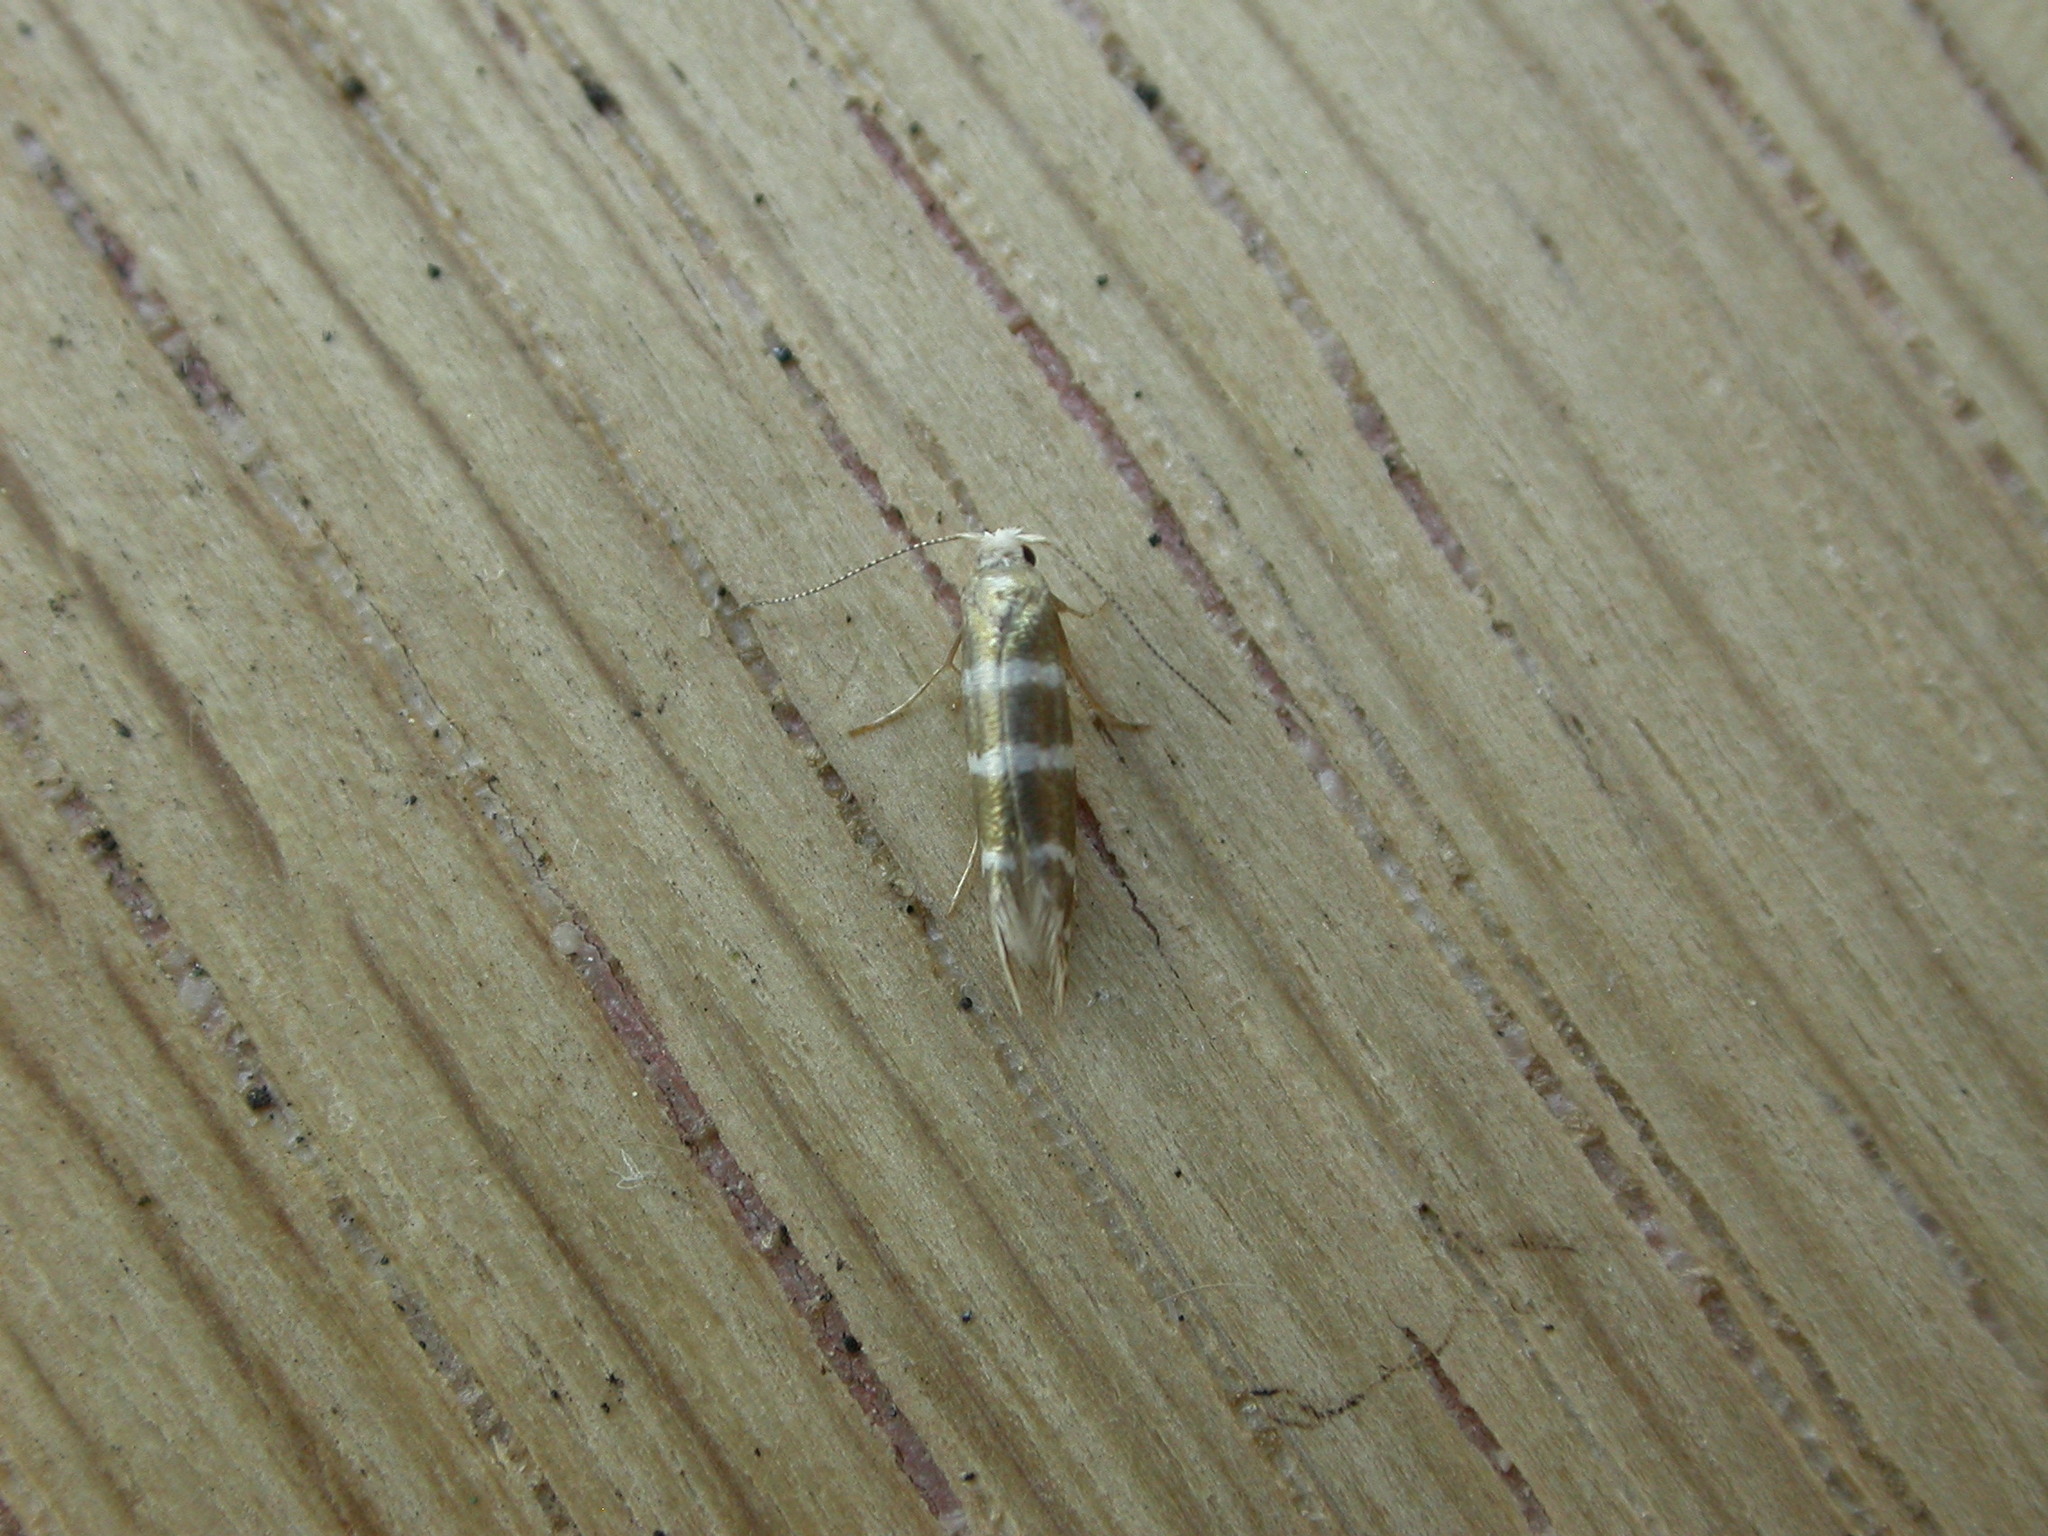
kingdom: Animalia
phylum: Arthropoda
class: Insecta
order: Lepidoptera
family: Argyresthiidae
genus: Argyresthia
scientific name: Argyresthia trifasciata
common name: Triple-barred argent
